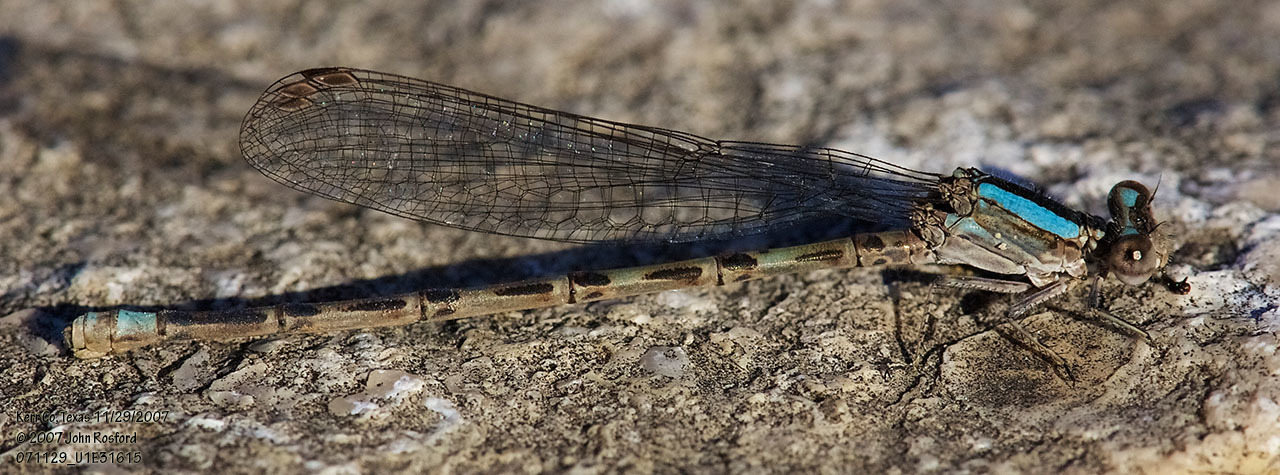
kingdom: Animalia
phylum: Arthropoda
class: Insecta
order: Odonata
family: Coenagrionidae
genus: Argia
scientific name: Argia immunda
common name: Kiowa dancer
